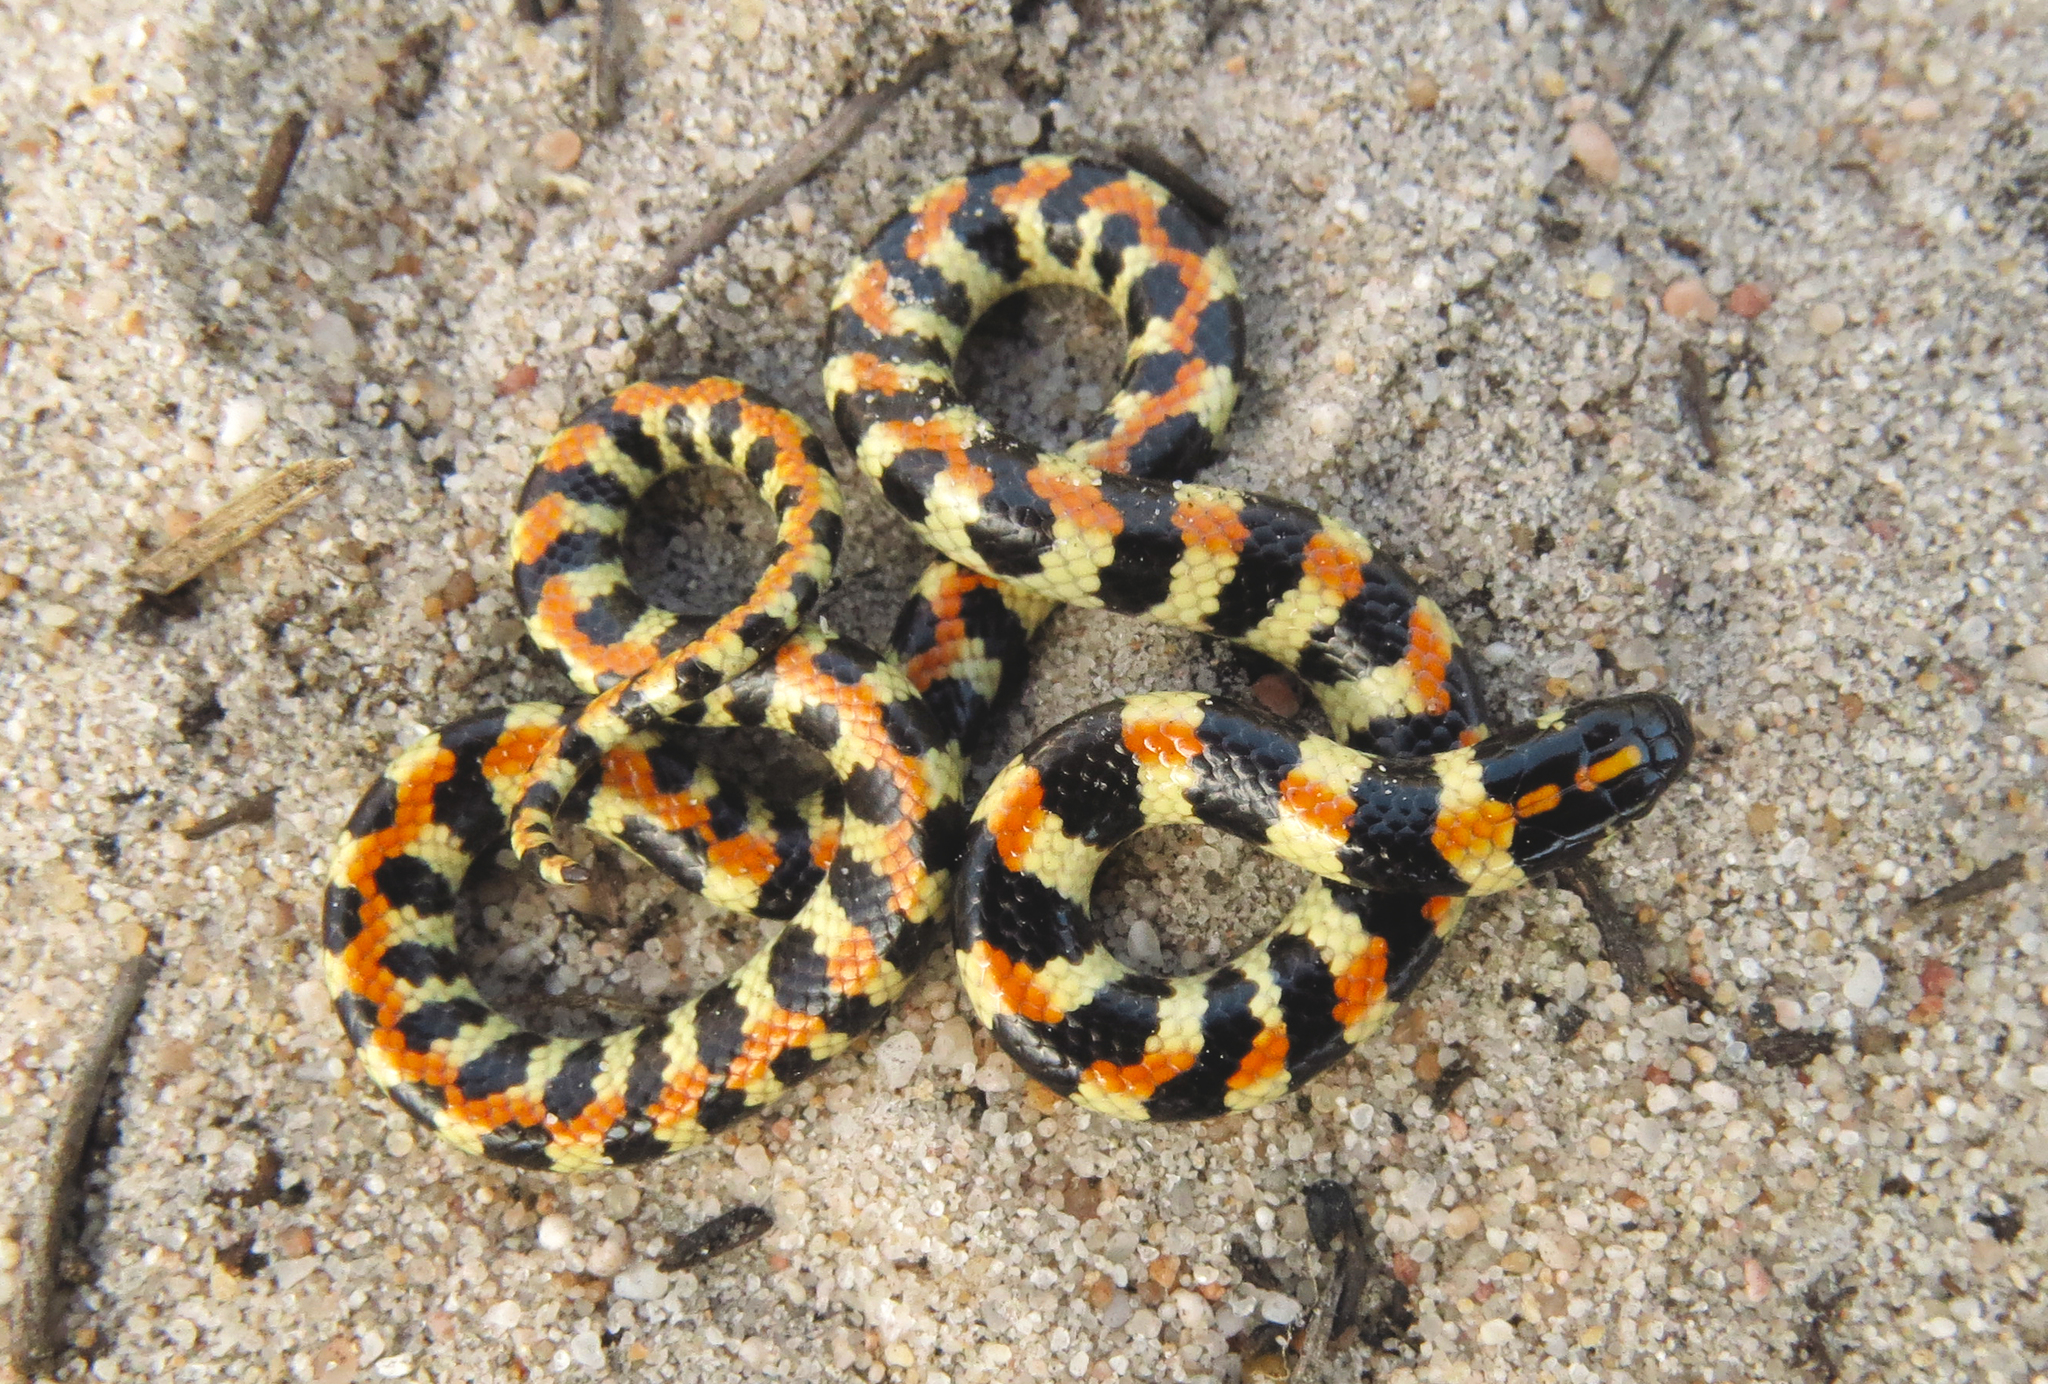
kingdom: Animalia
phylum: Chordata
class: Squamata
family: Atractaspididae
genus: Homoroselaps
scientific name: Homoroselaps lacteus
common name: Spotted harlequin snake
